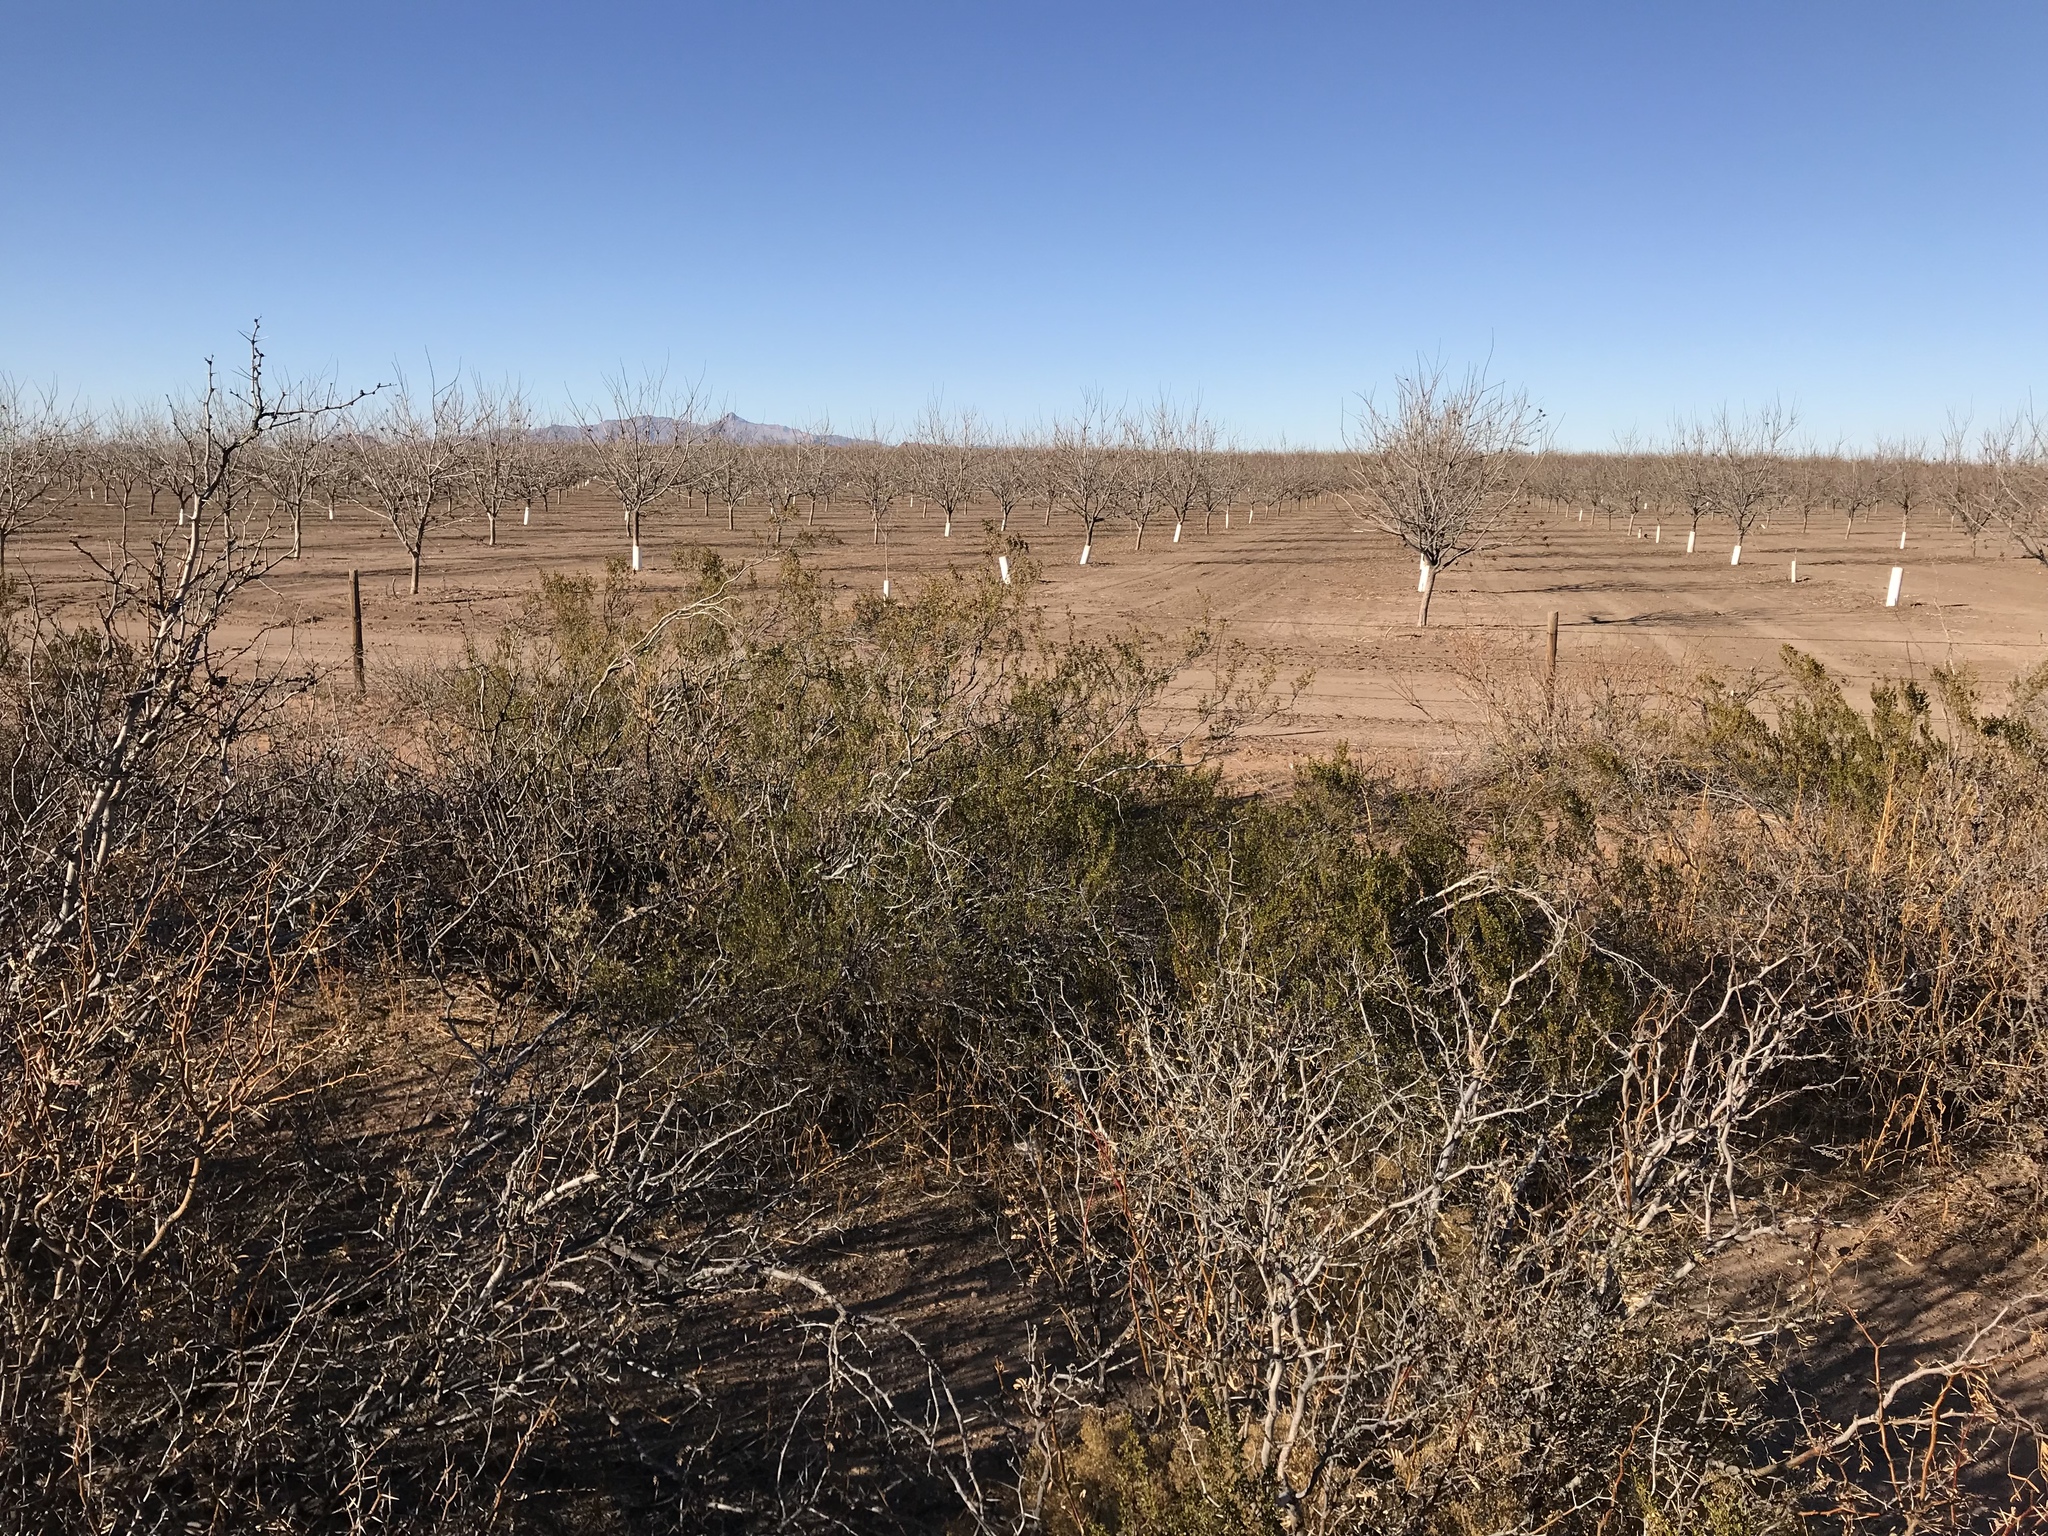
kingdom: Plantae
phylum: Tracheophyta
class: Magnoliopsida
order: Zygophyllales
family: Zygophyllaceae
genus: Larrea
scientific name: Larrea tridentata
